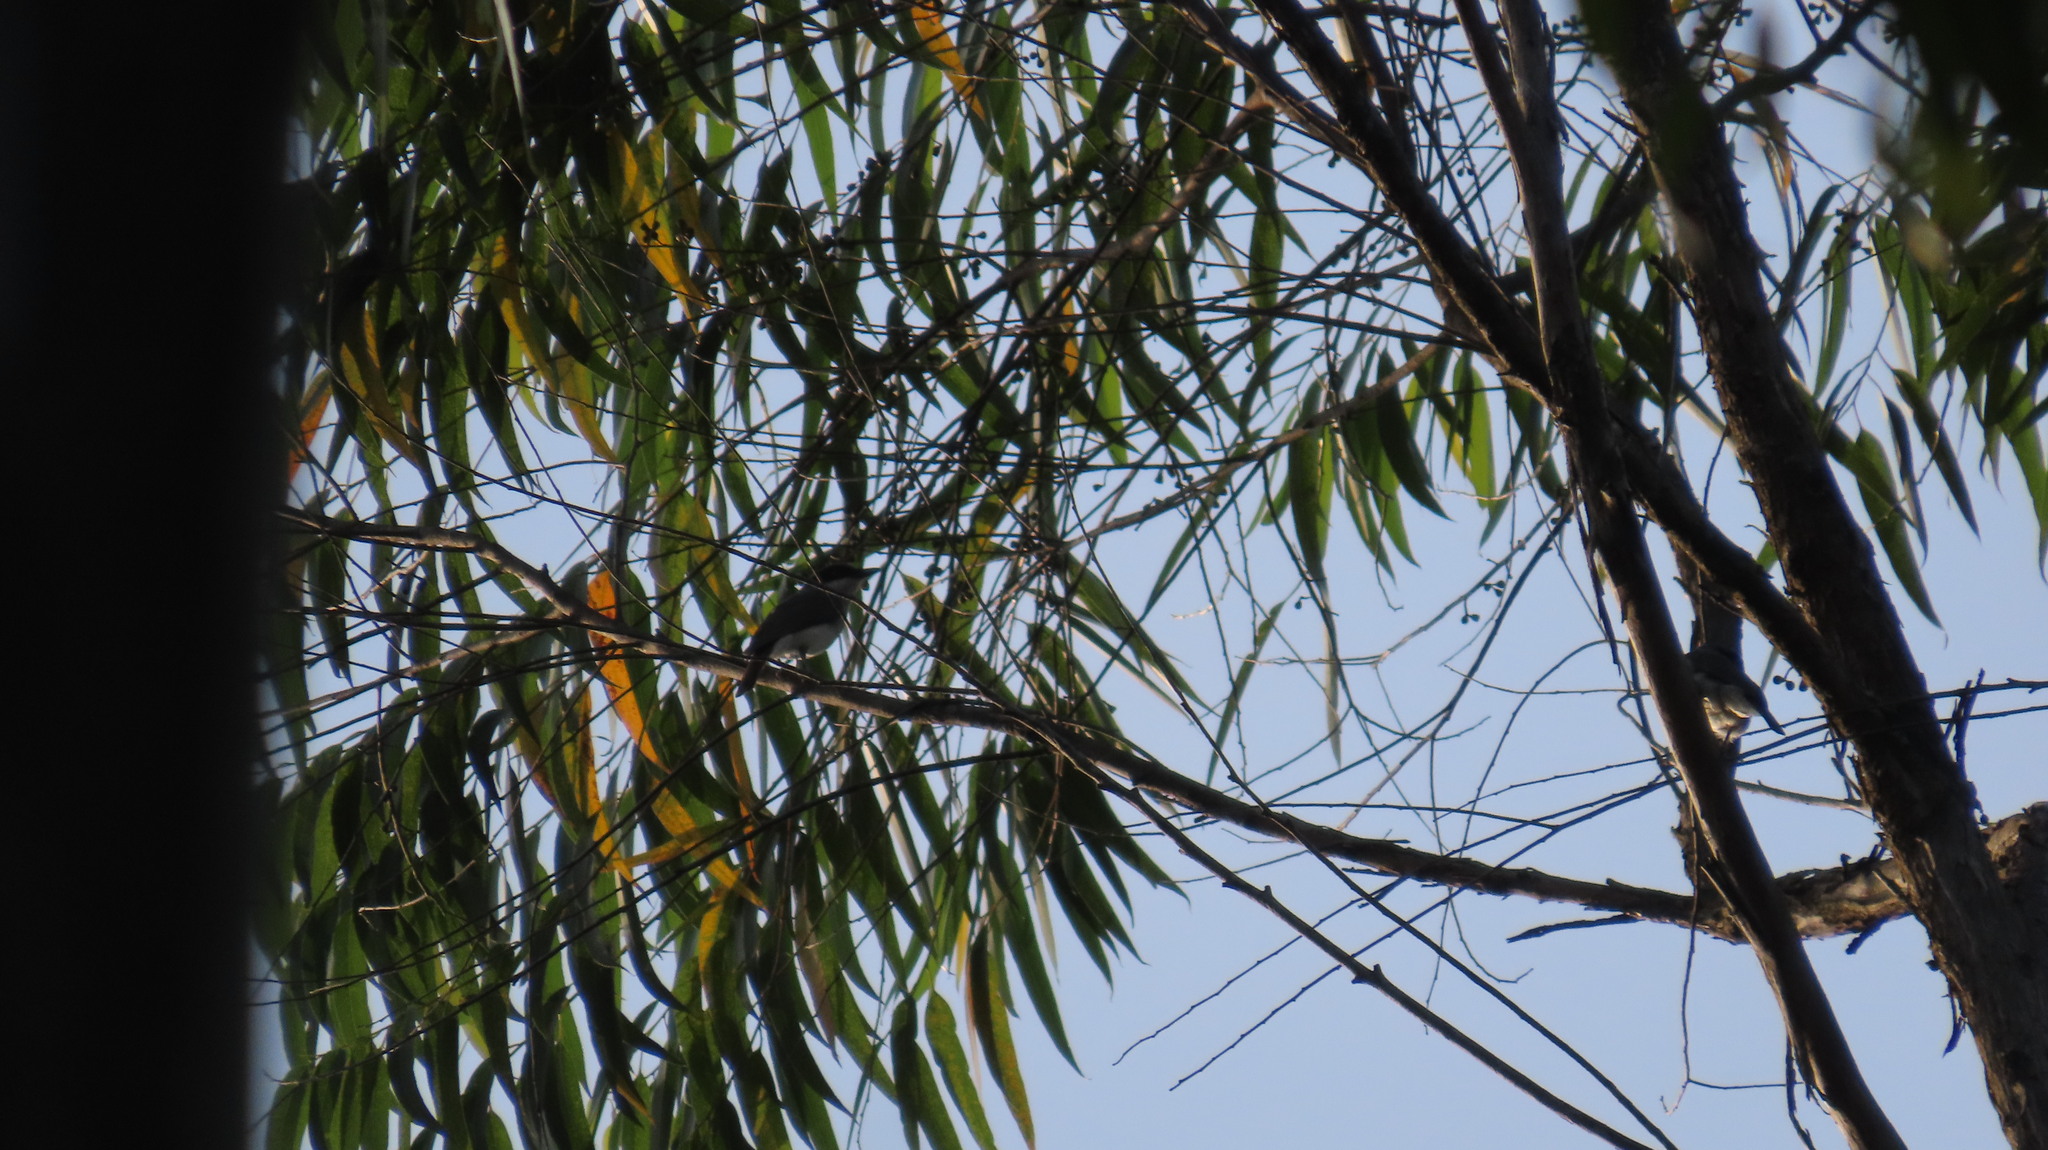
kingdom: Animalia
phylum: Chordata
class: Aves
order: Passeriformes
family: Tephrodornithidae
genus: Tephrodornis
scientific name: Tephrodornis sylvicola
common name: Malabar woodshrike
